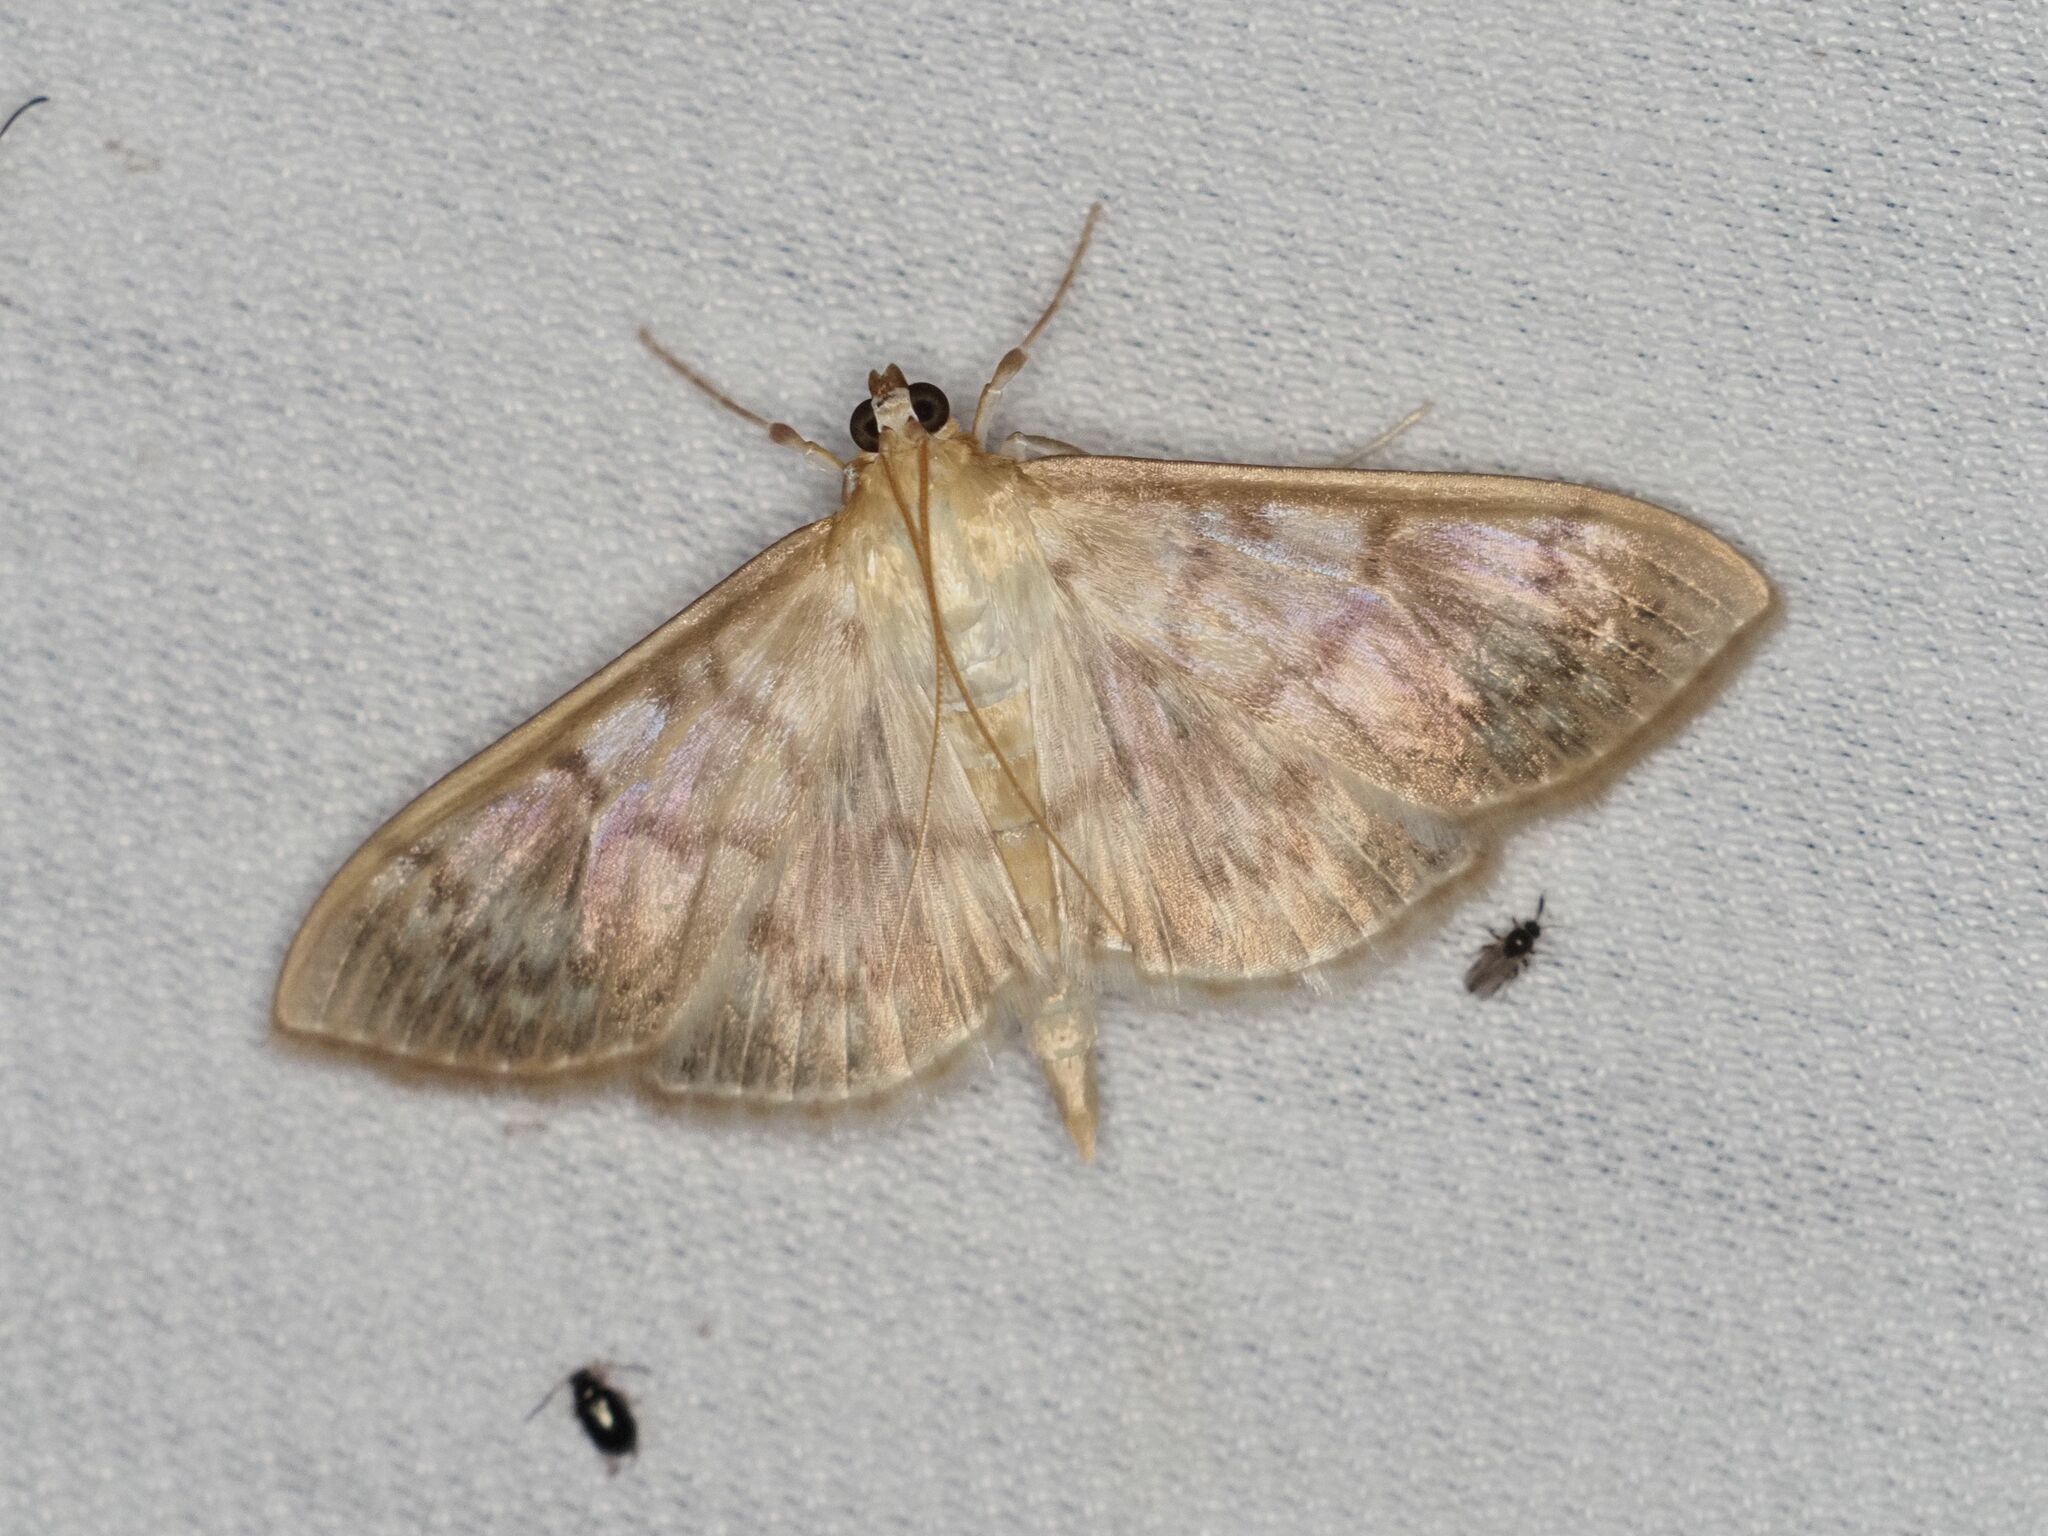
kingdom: Animalia
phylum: Arthropoda
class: Insecta
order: Lepidoptera
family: Crambidae
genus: Patania
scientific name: Patania ruralis
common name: Mother of pearl
